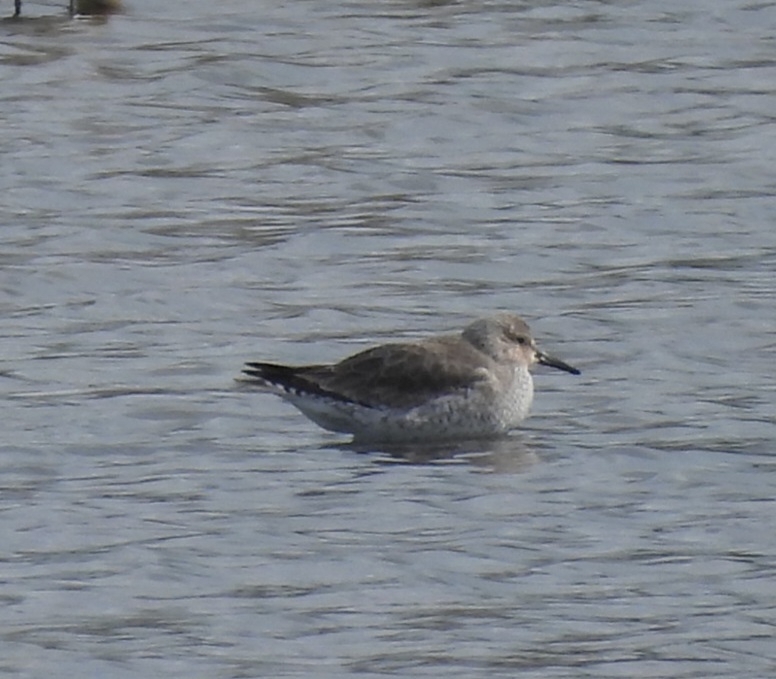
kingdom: Animalia
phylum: Chordata
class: Aves
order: Charadriiformes
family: Scolopacidae
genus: Calidris
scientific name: Calidris canutus
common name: Red knot
